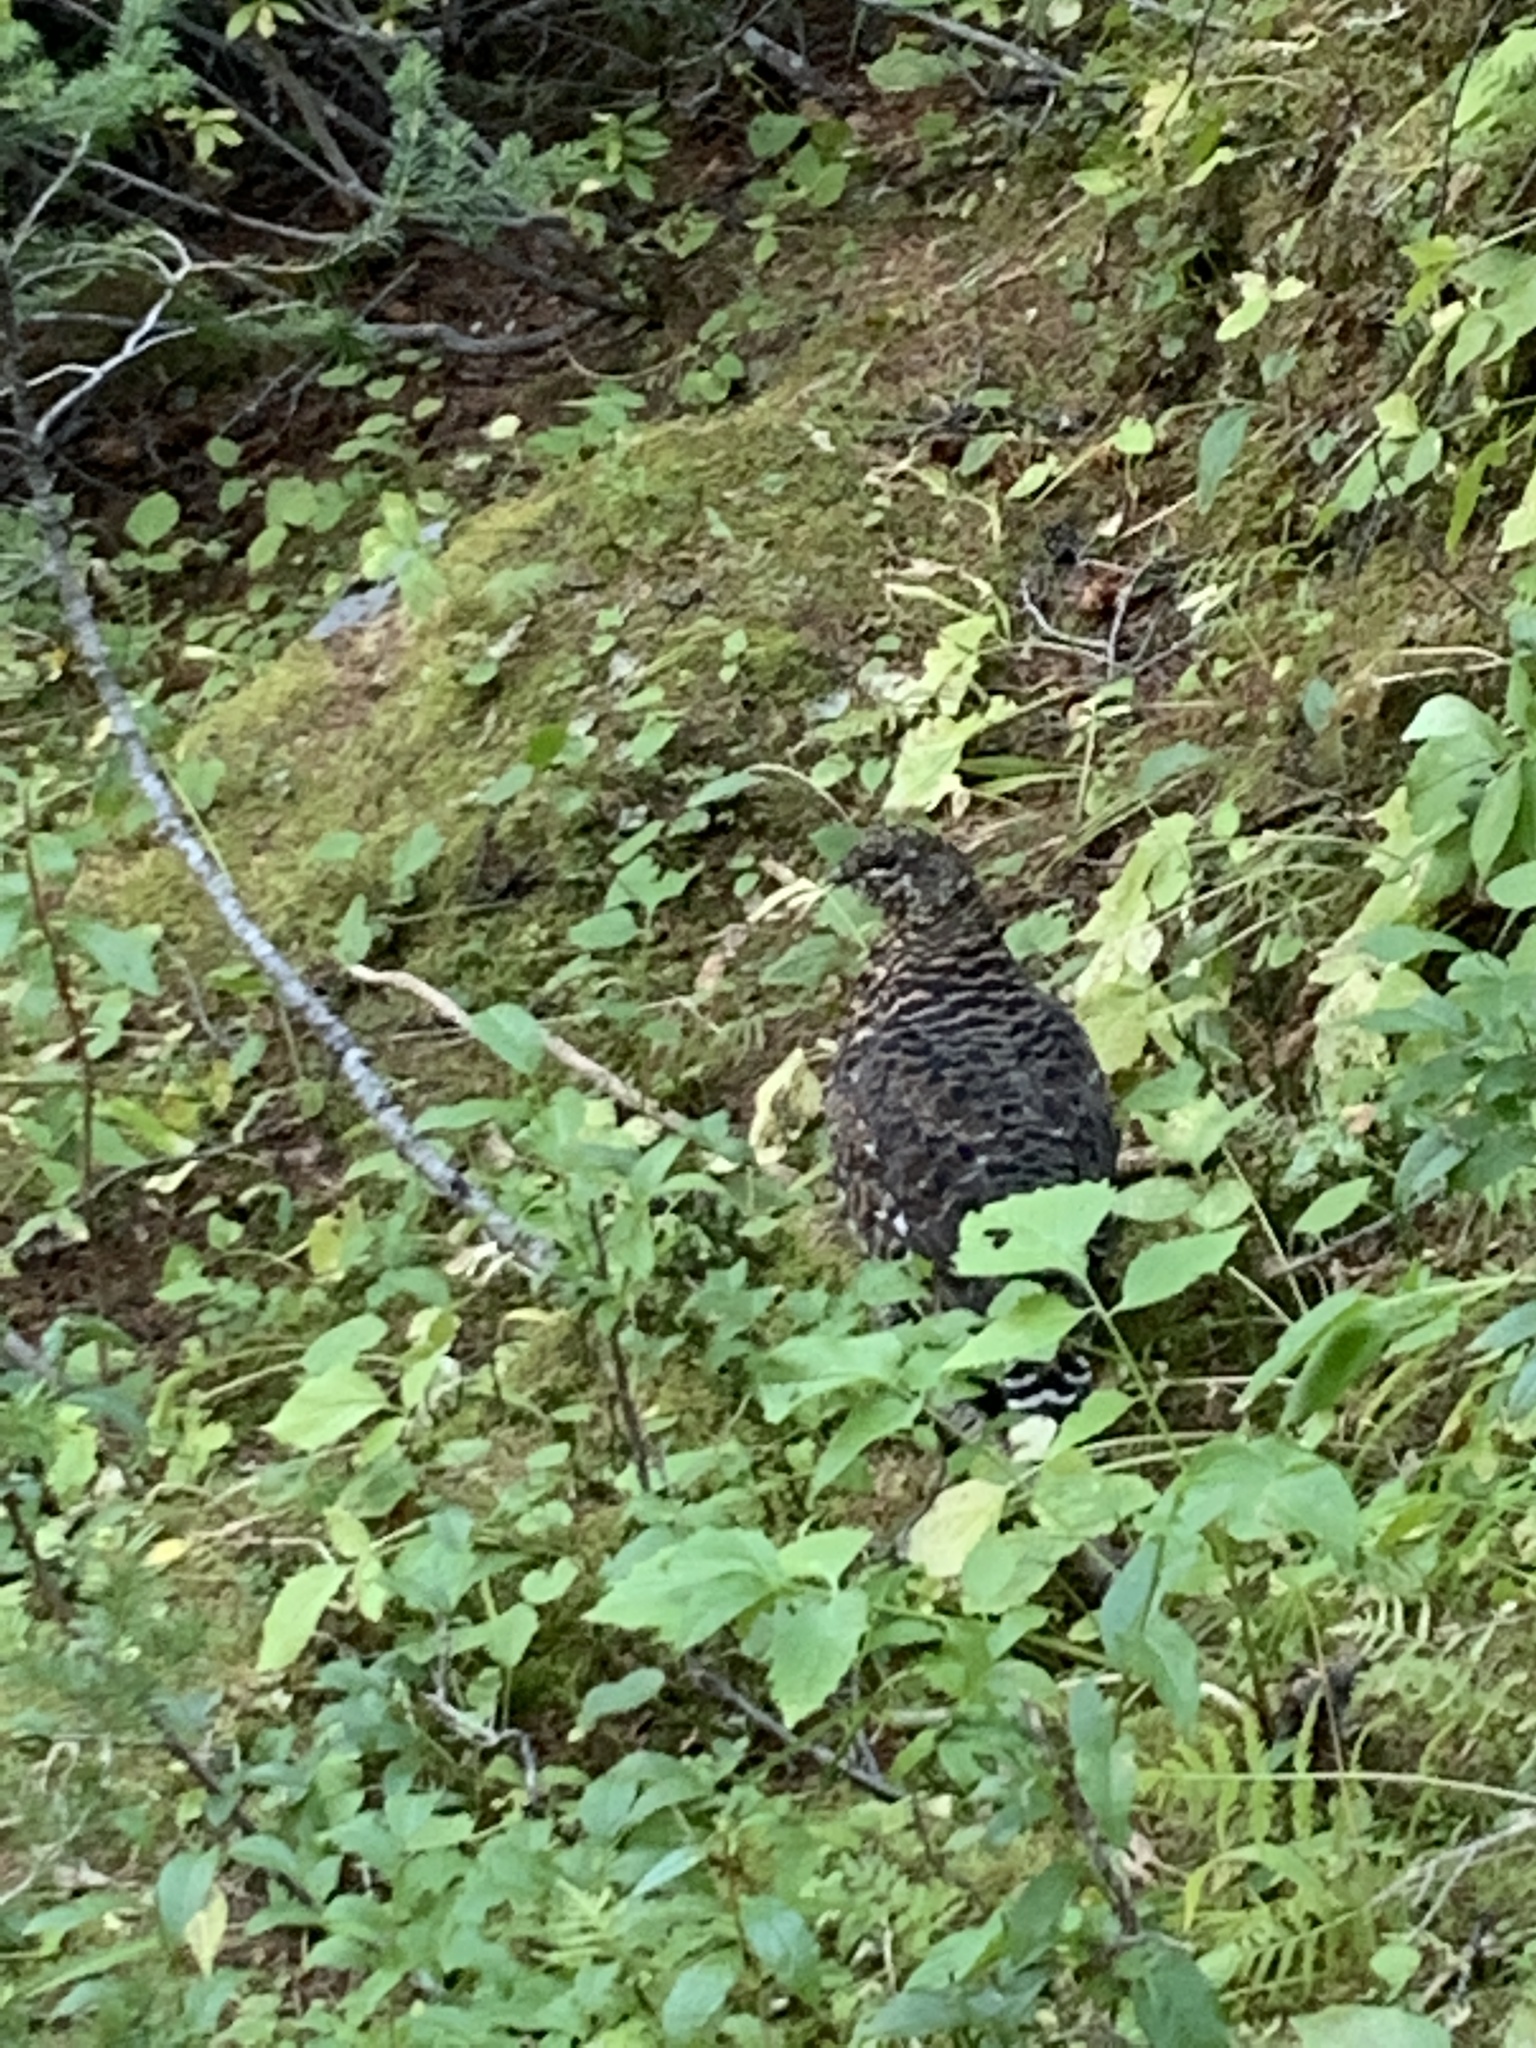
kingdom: Animalia
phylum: Chordata
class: Aves
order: Galliformes
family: Phasianidae
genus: Canachites
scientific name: Canachites canadensis
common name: Spruce grouse
